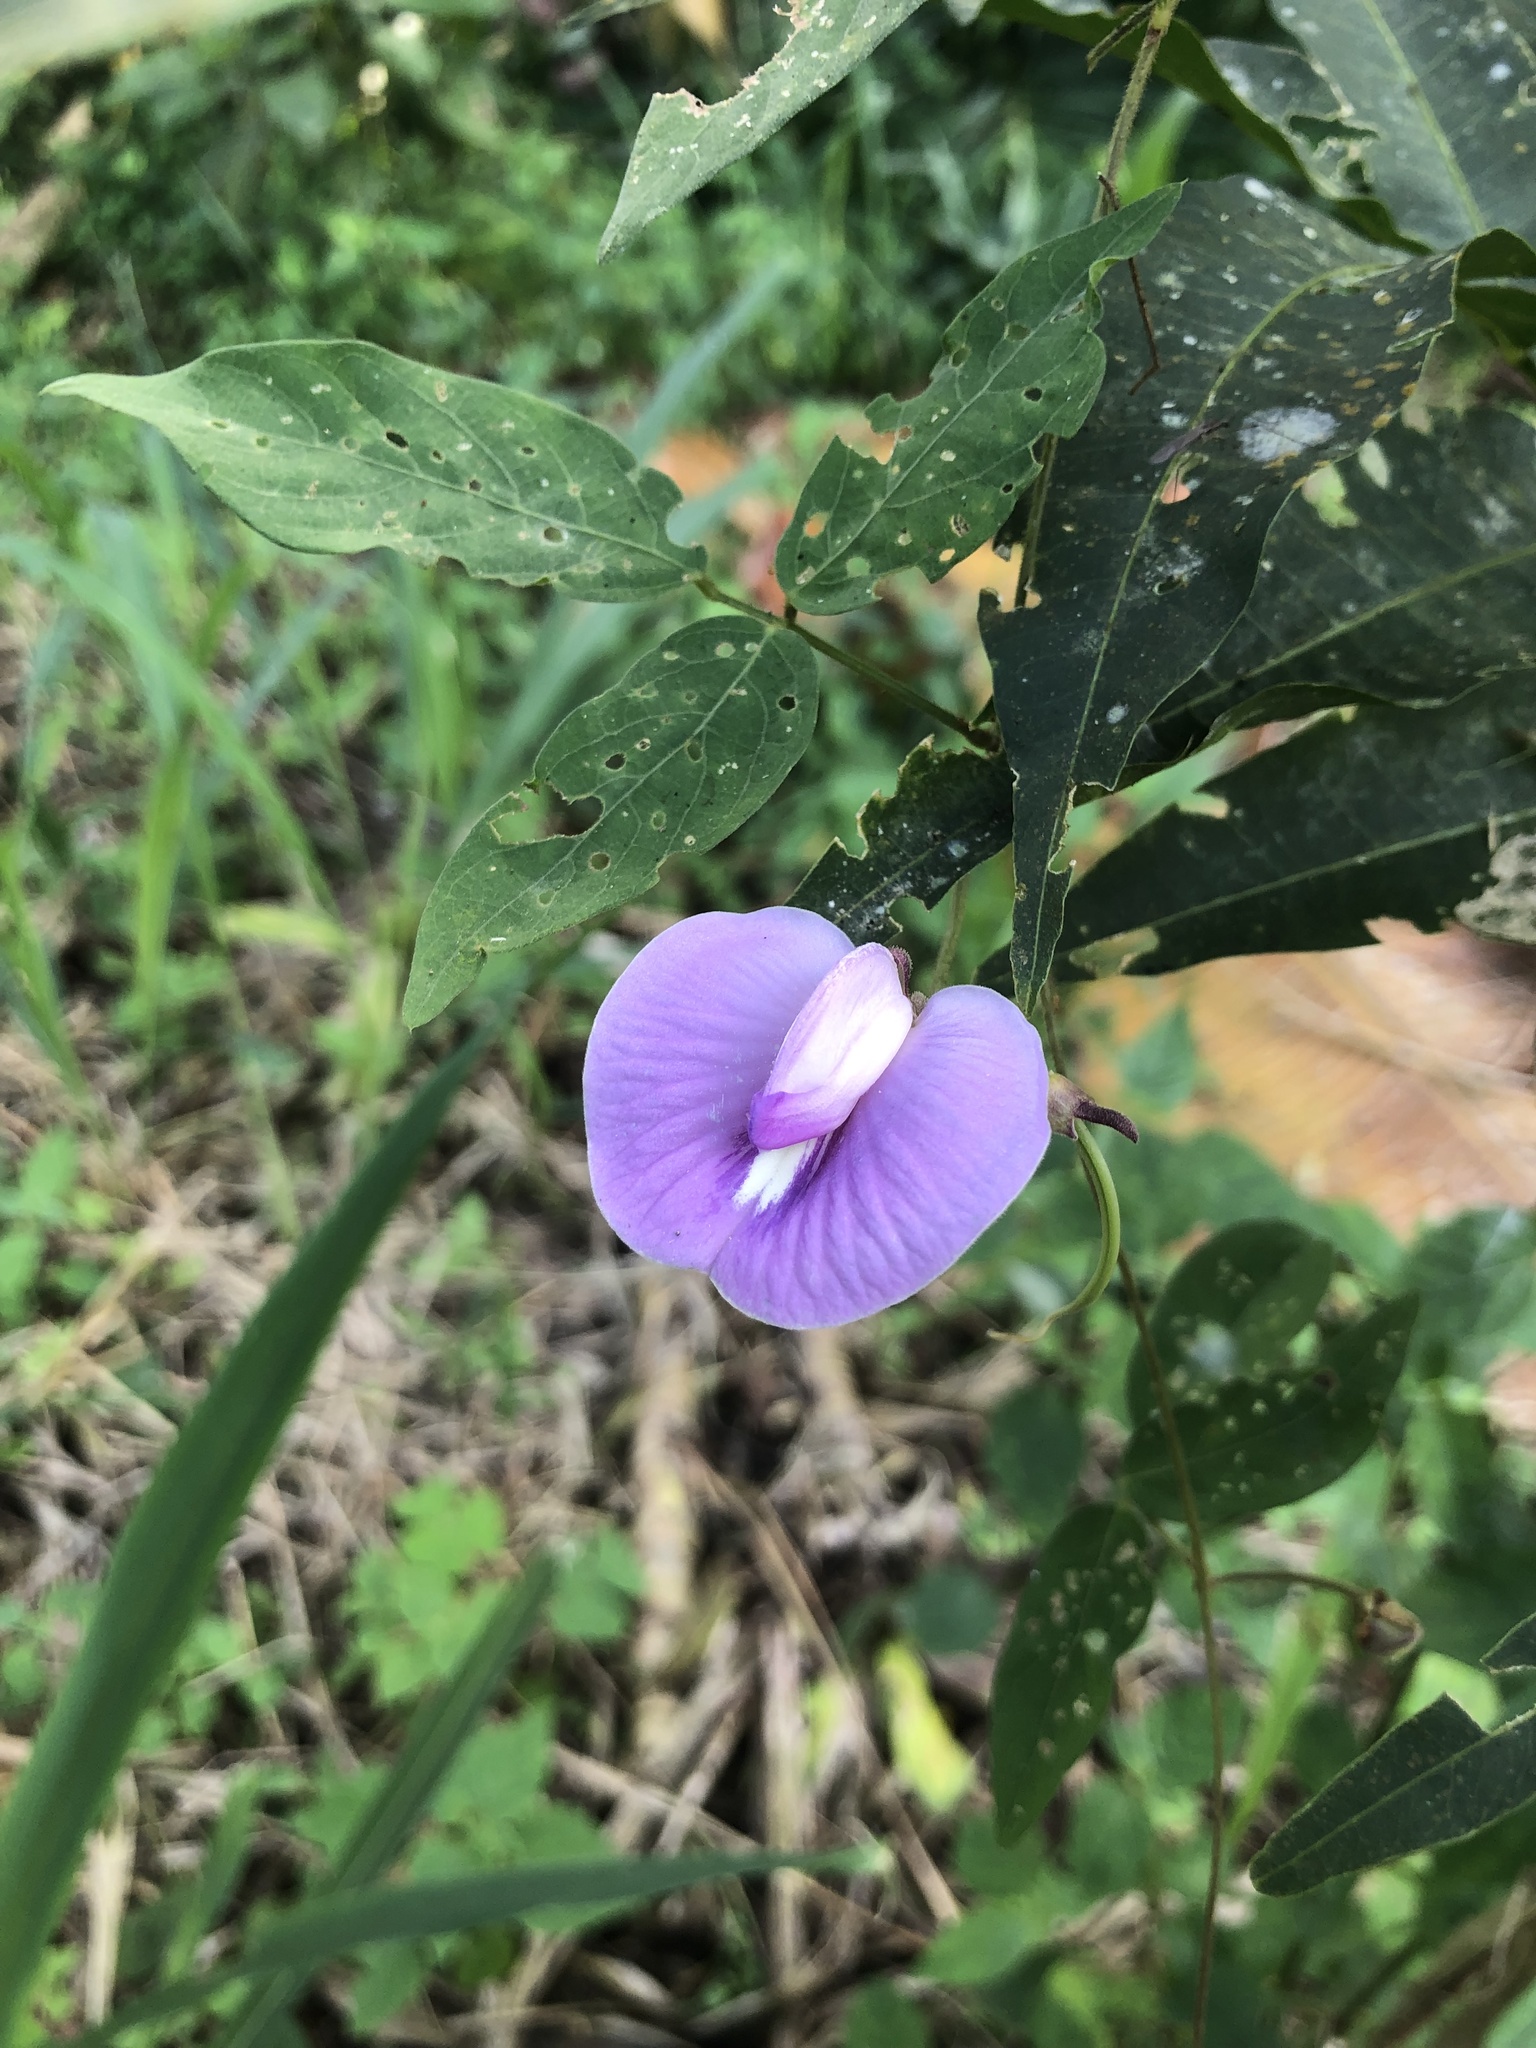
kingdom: Plantae
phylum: Tracheophyta
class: Magnoliopsida
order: Fabales
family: Fabaceae
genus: Centrosema
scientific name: Centrosema virginianum
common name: Butterfly-pea
